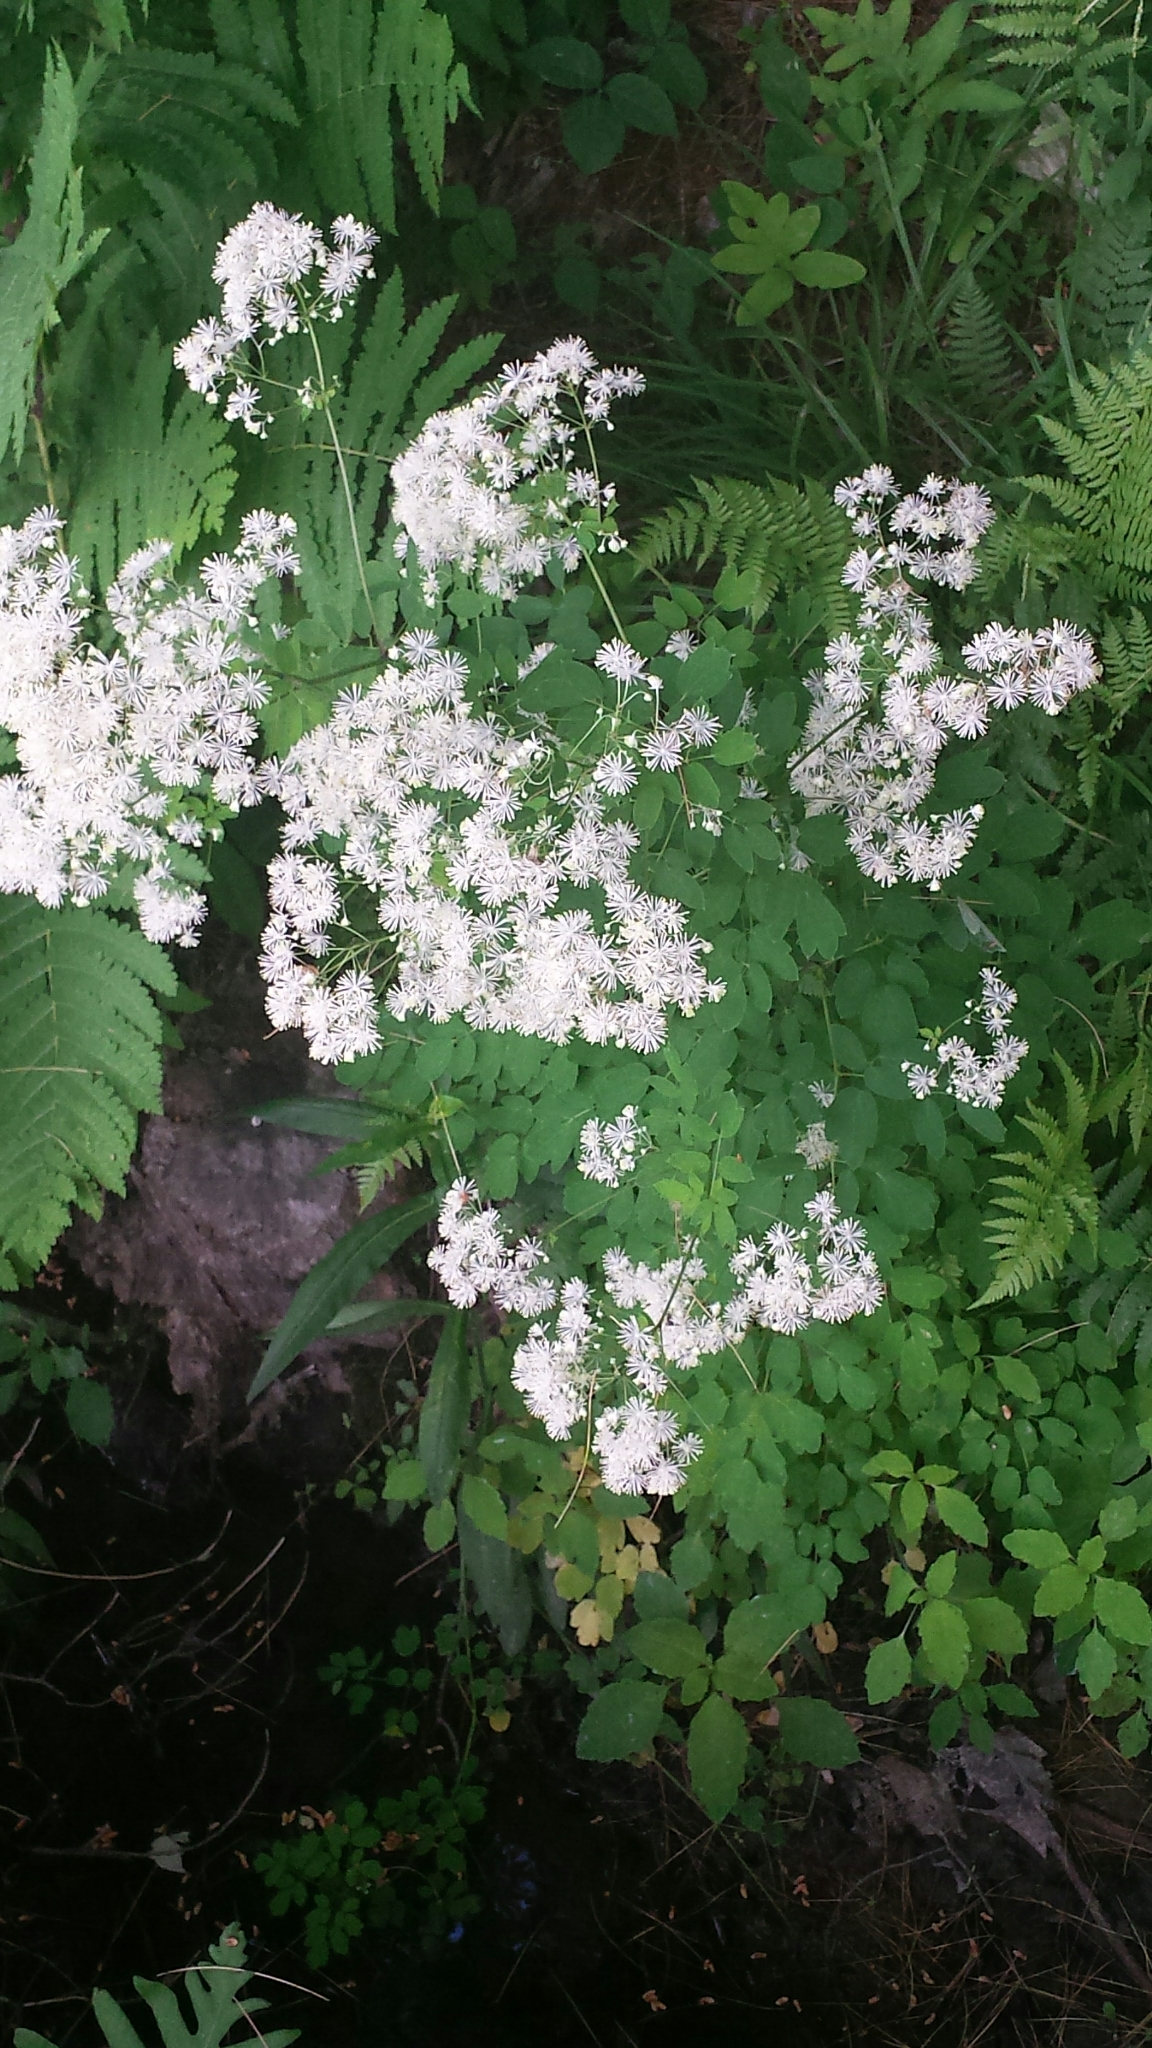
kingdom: Plantae
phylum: Tracheophyta
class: Magnoliopsida
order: Ranunculales
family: Ranunculaceae
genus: Thalictrum
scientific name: Thalictrum pubescens
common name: King-of-the-meadow
